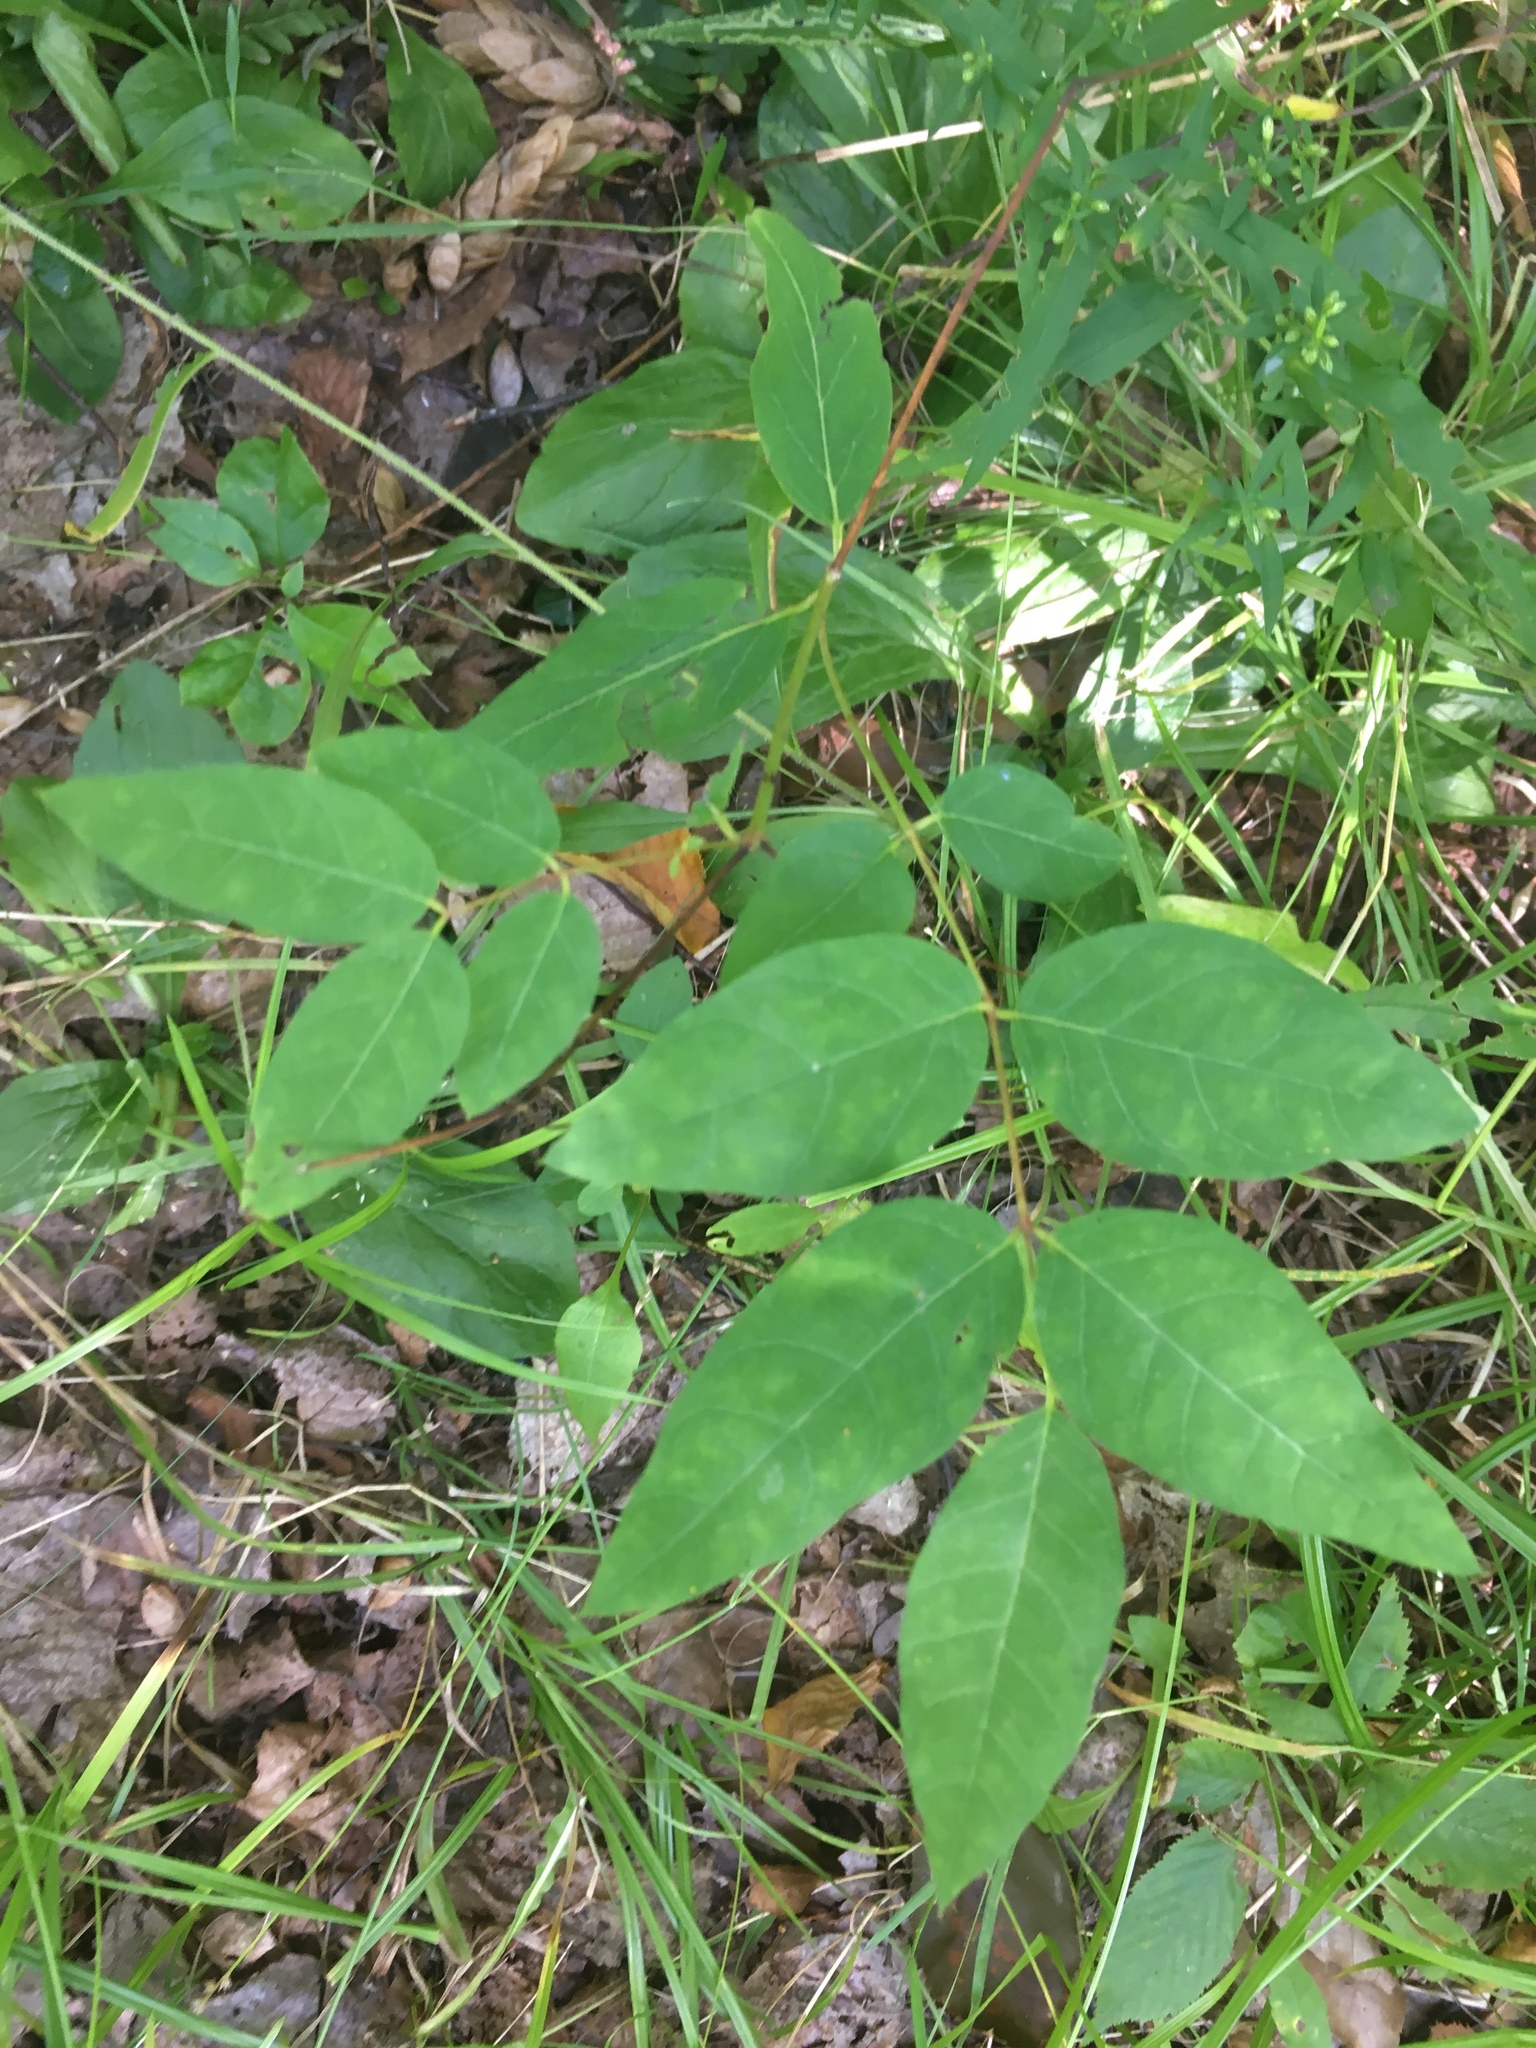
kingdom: Plantae
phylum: Tracheophyta
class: Magnoliopsida
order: Gentianales
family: Apocynaceae
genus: Apocynum
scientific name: Apocynum androsaemifolium
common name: Spreading dogbane
